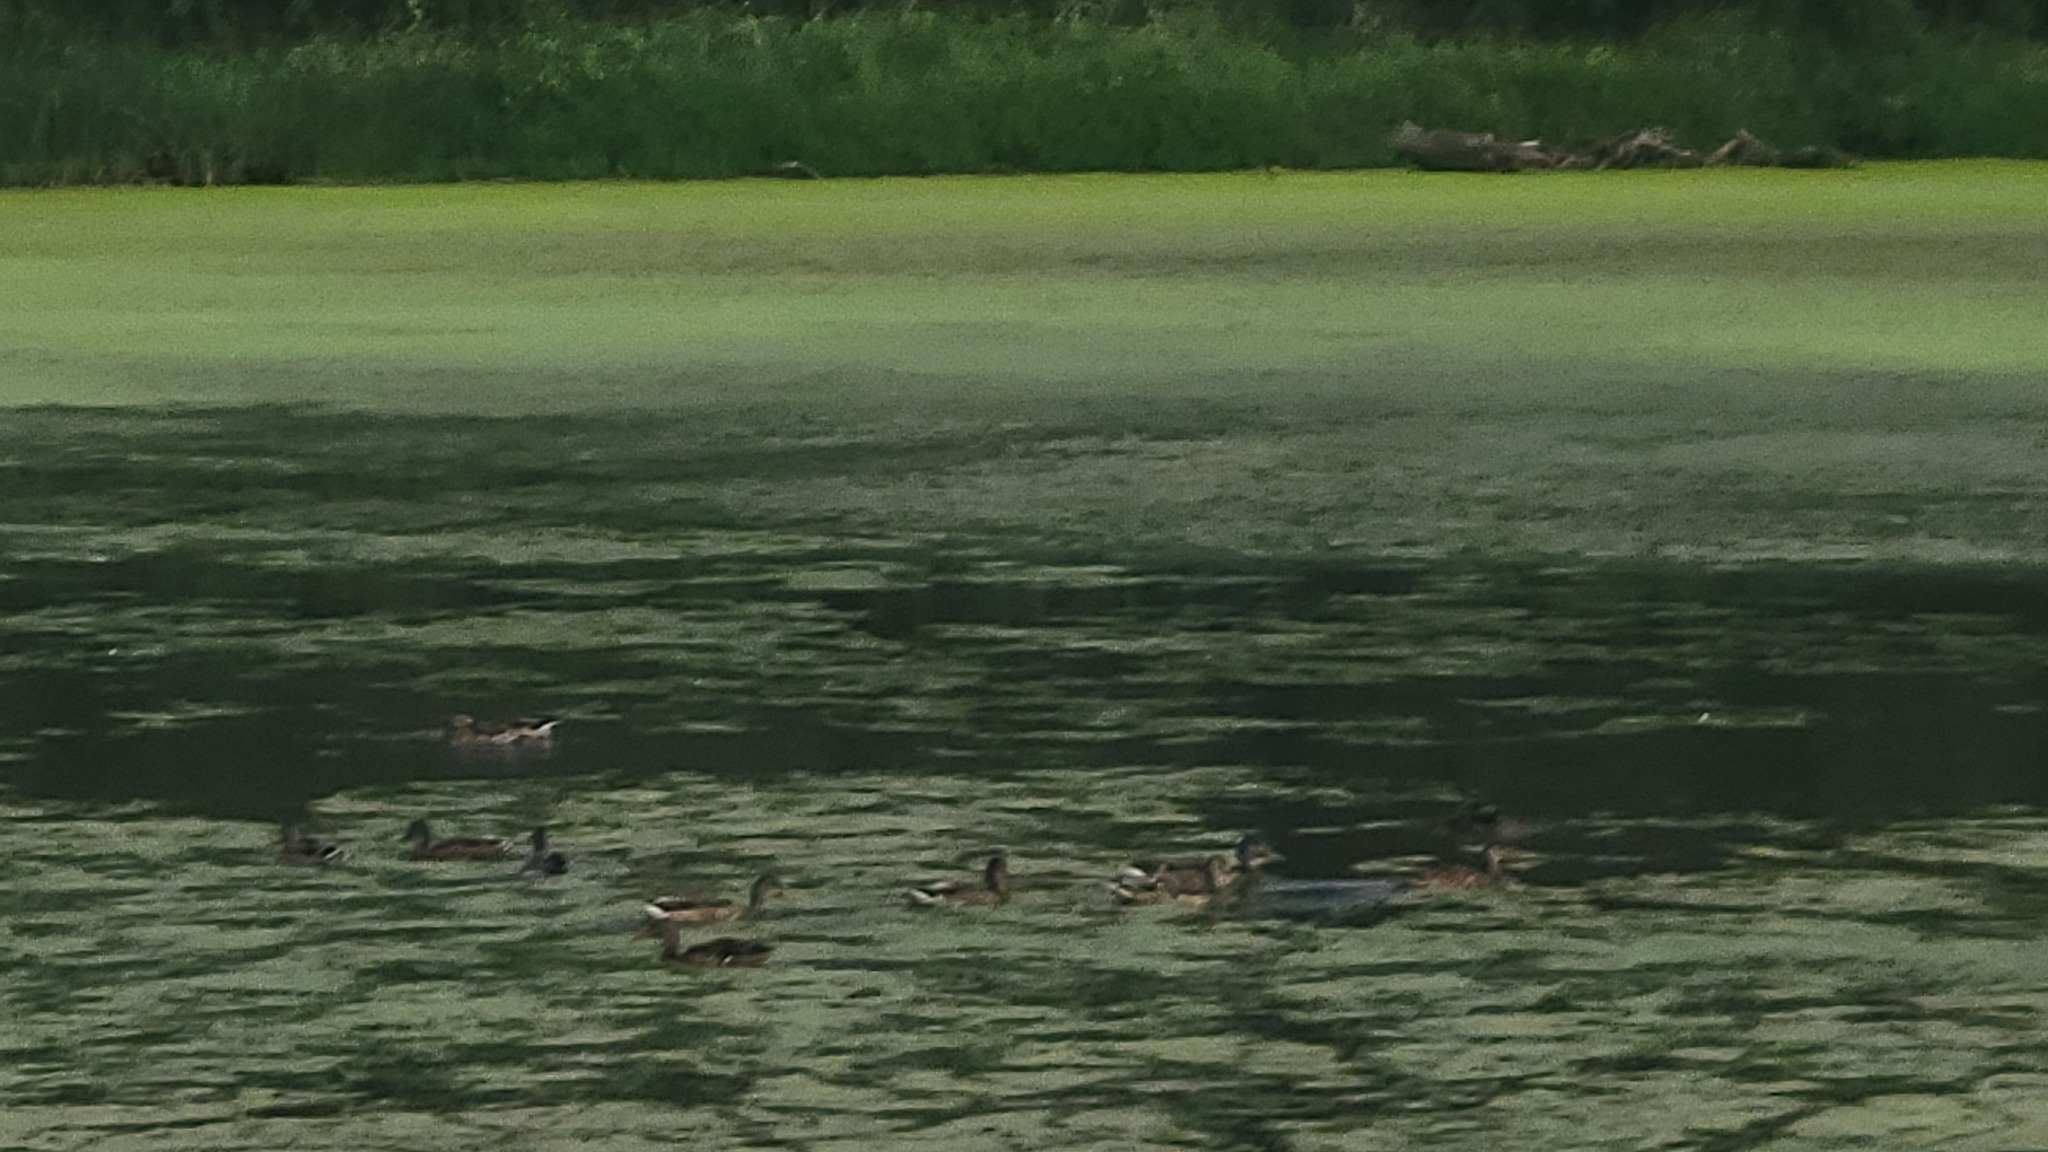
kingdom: Animalia
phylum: Chordata
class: Aves
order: Anseriformes
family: Anatidae
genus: Anas
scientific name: Anas platyrhynchos
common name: Mallard
